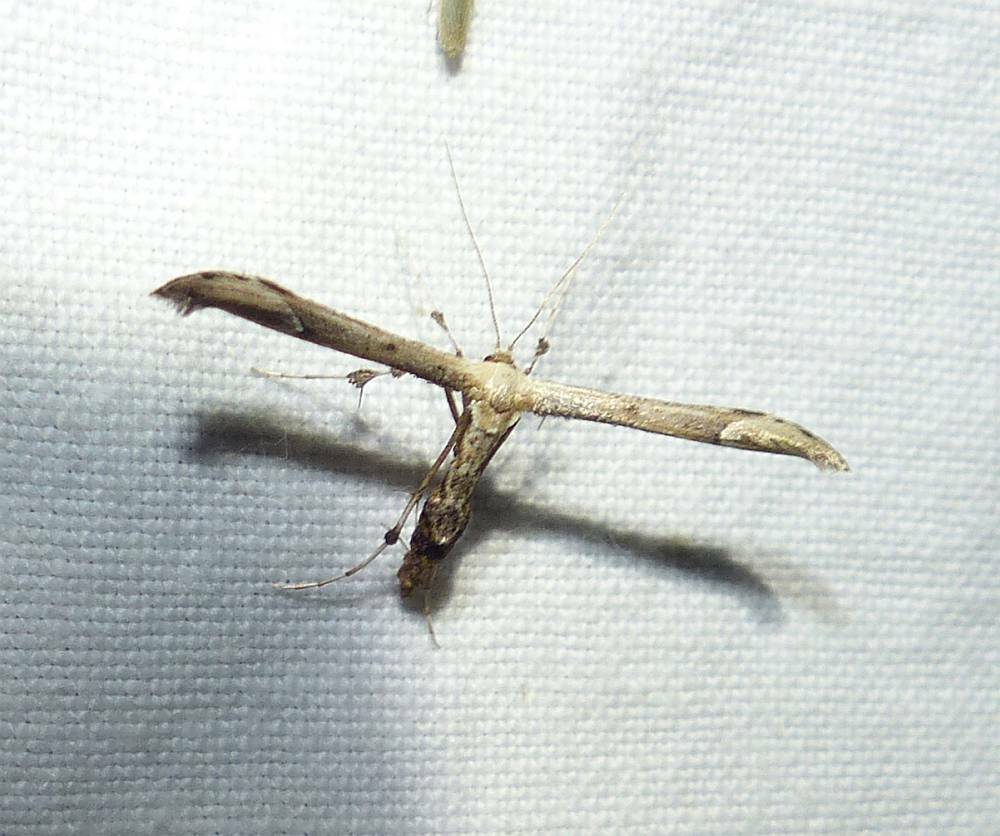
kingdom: Animalia
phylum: Arthropoda
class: Insecta
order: Lepidoptera
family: Pterophoridae
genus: Oidaematophorus
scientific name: Oidaematophorus eupatorii
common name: Eupatorium plume moth
